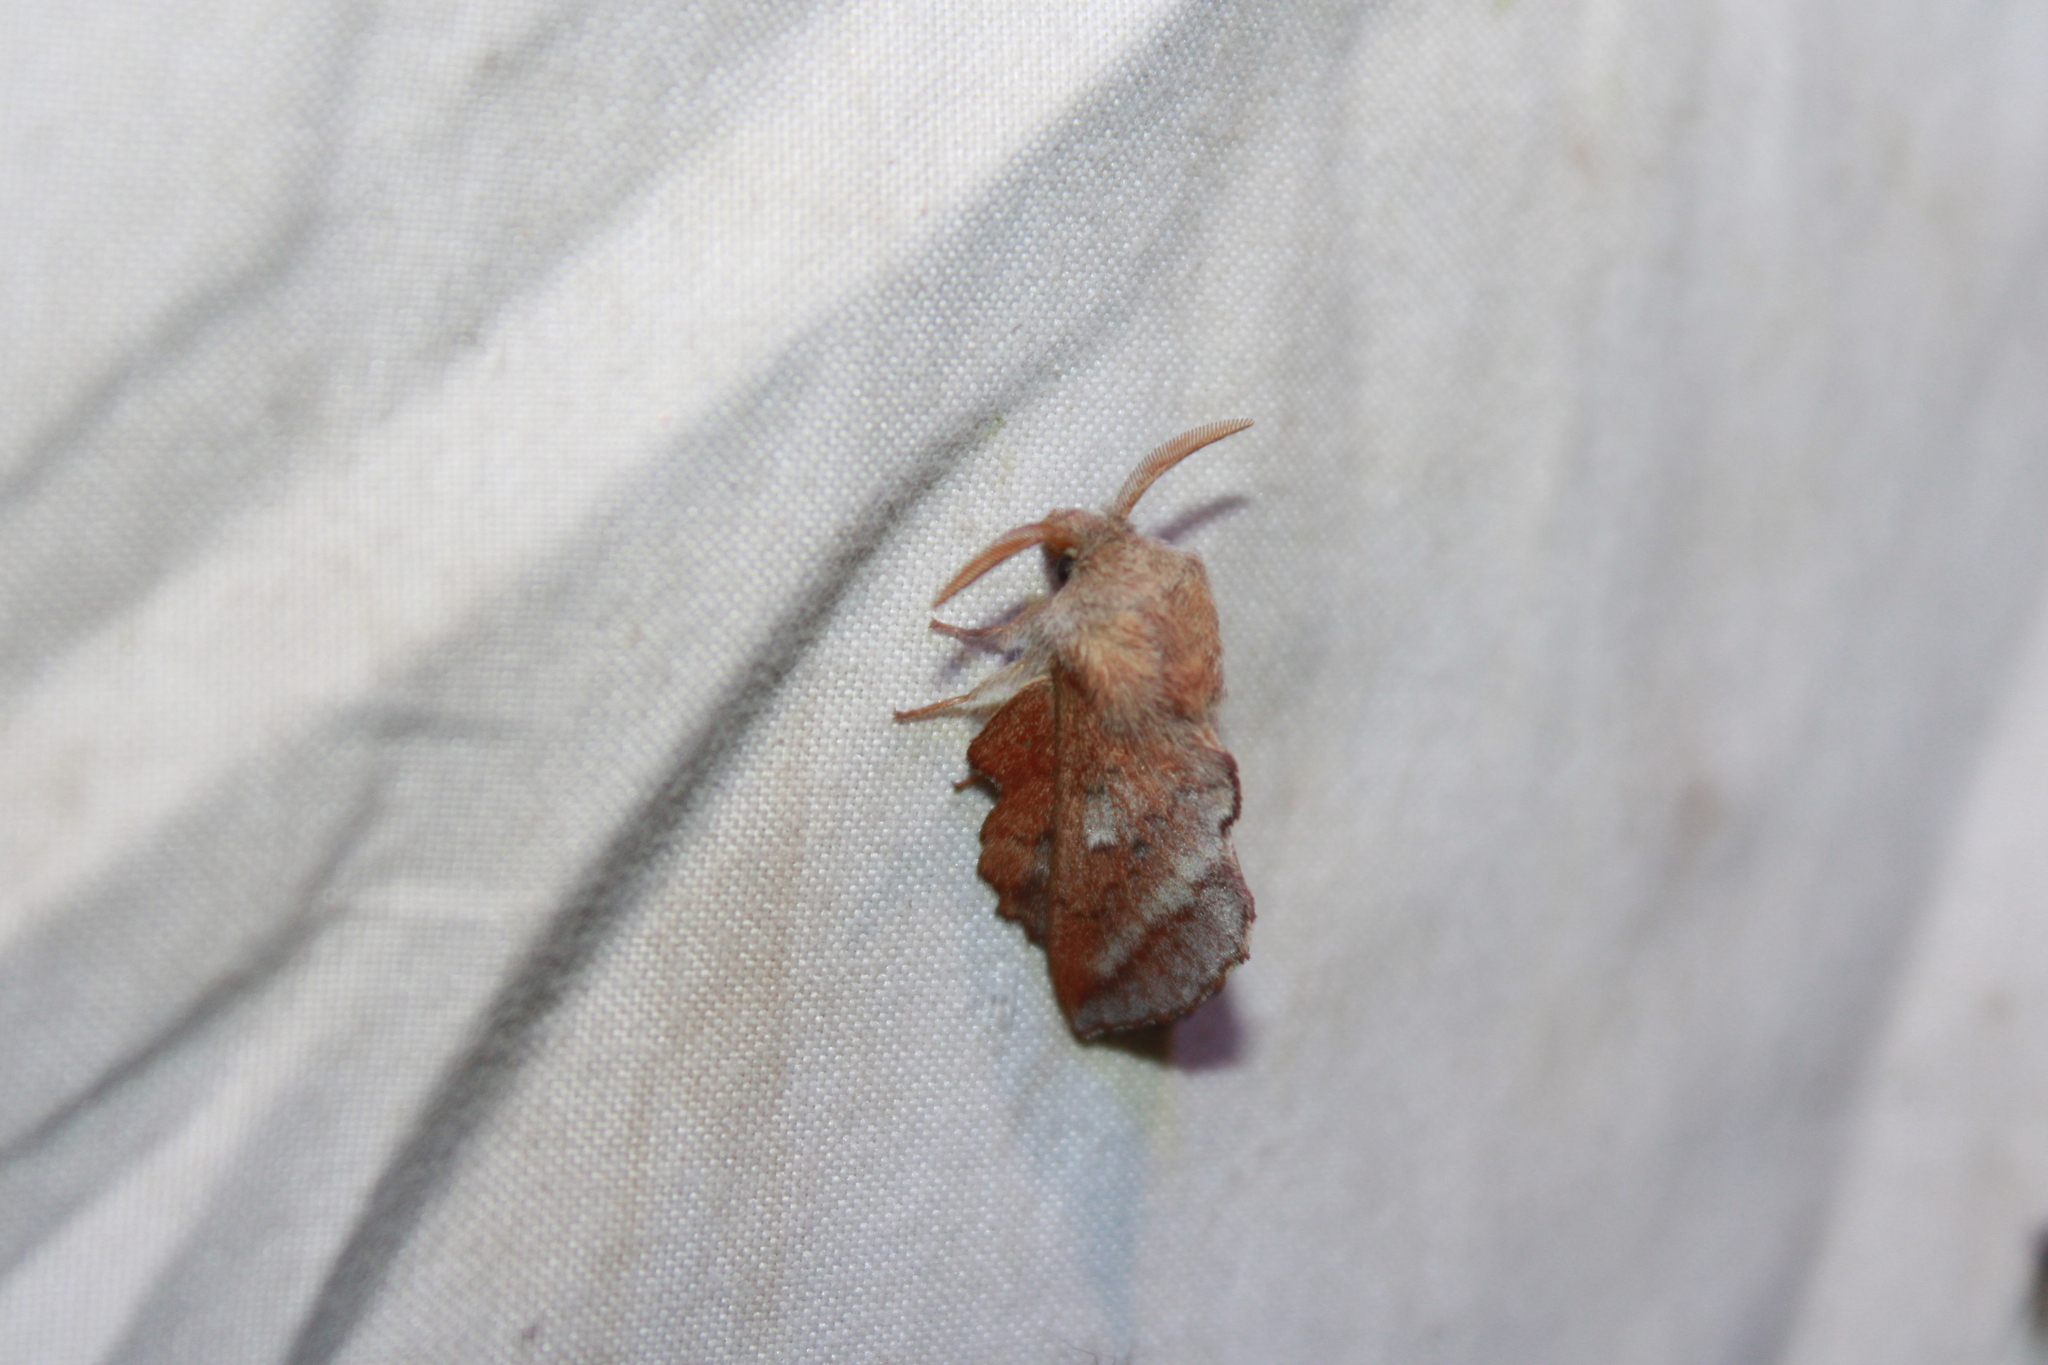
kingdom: Animalia
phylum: Arthropoda
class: Insecta
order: Lepidoptera
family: Lasiocampidae
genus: Phyllodesma
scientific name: Phyllodesma americana
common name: American lappet moth
